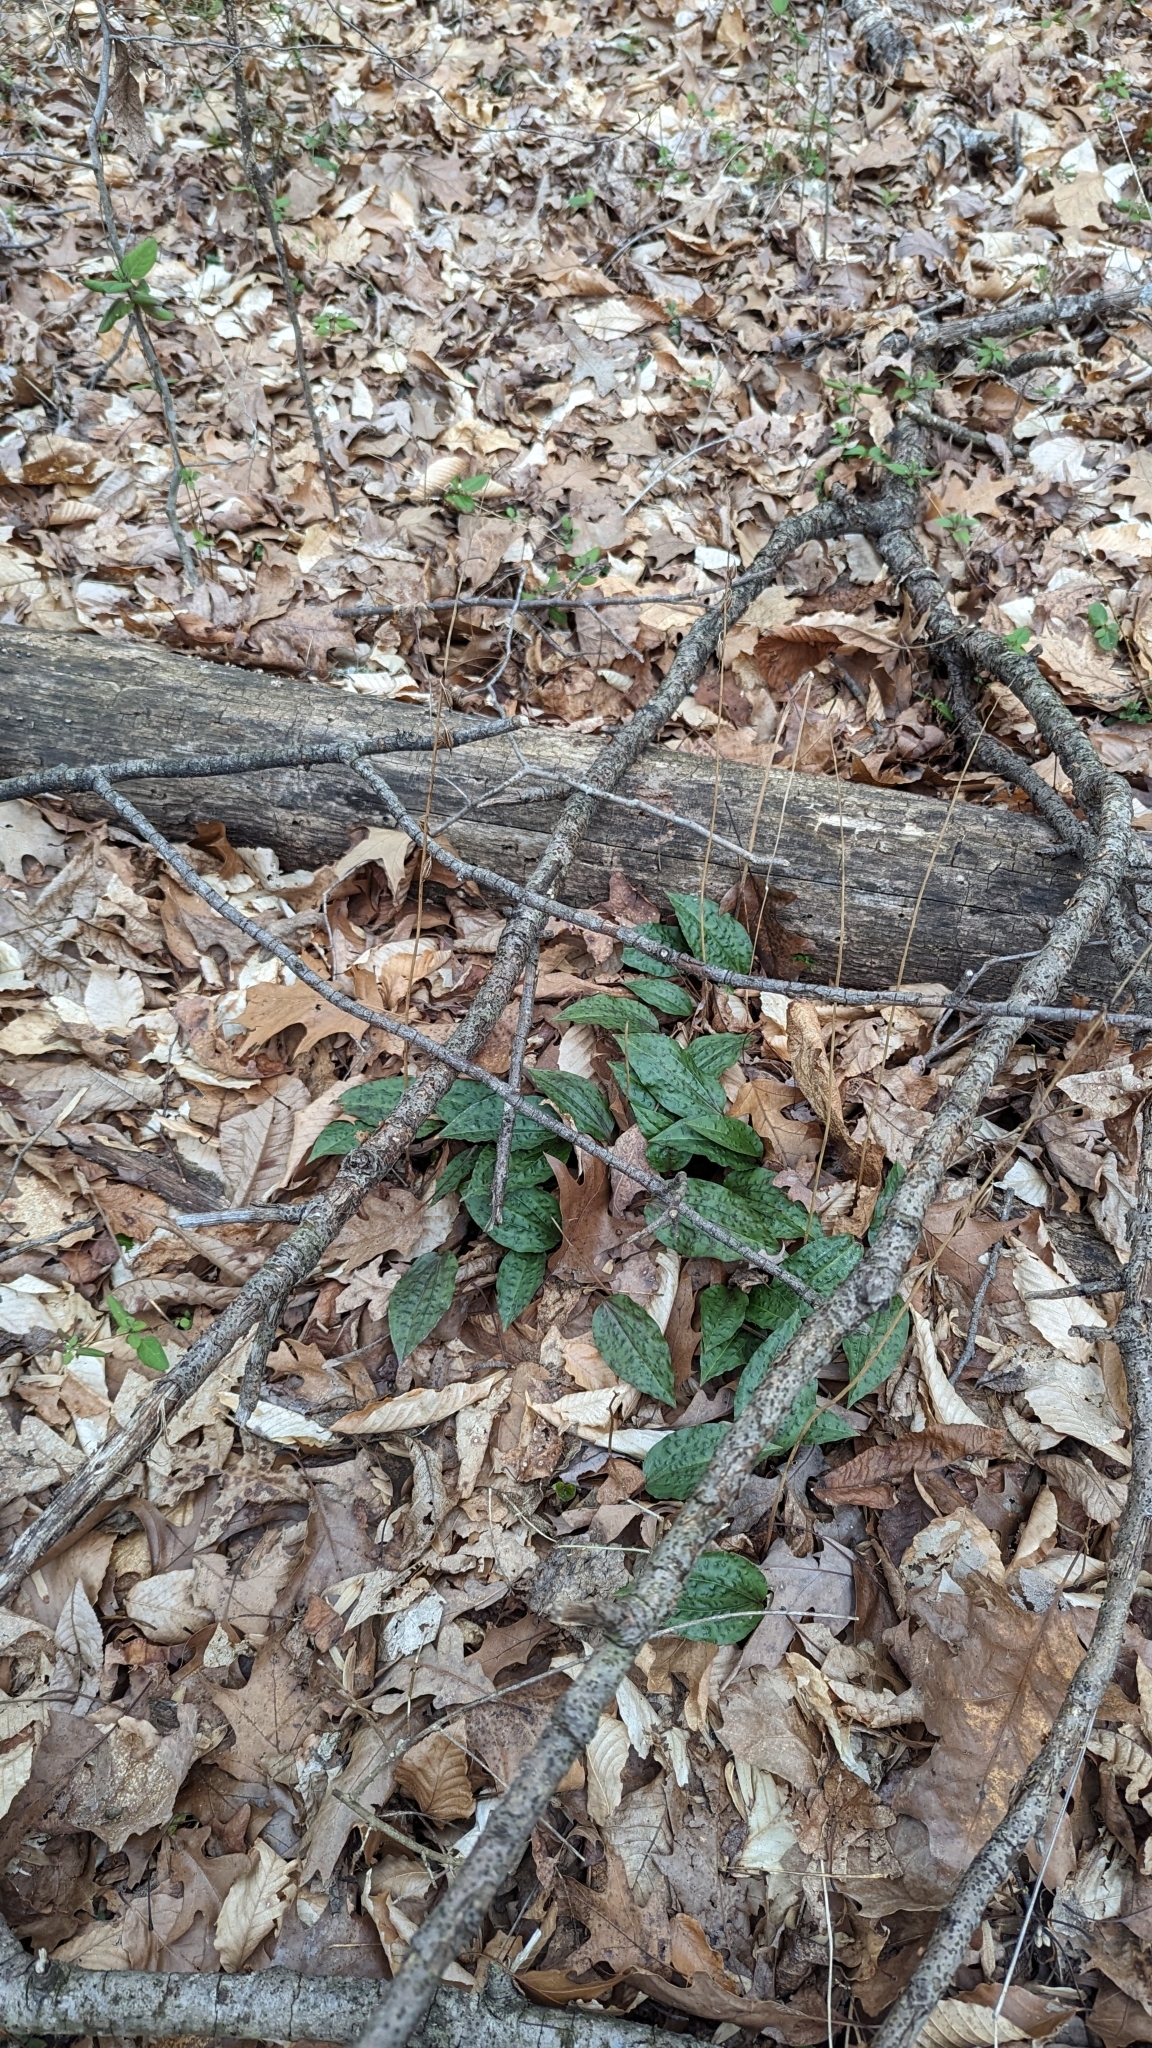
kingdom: Plantae
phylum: Tracheophyta
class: Liliopsida
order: Asparagales
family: Orchidaceae
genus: Tipularia
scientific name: Tipularia discolor
